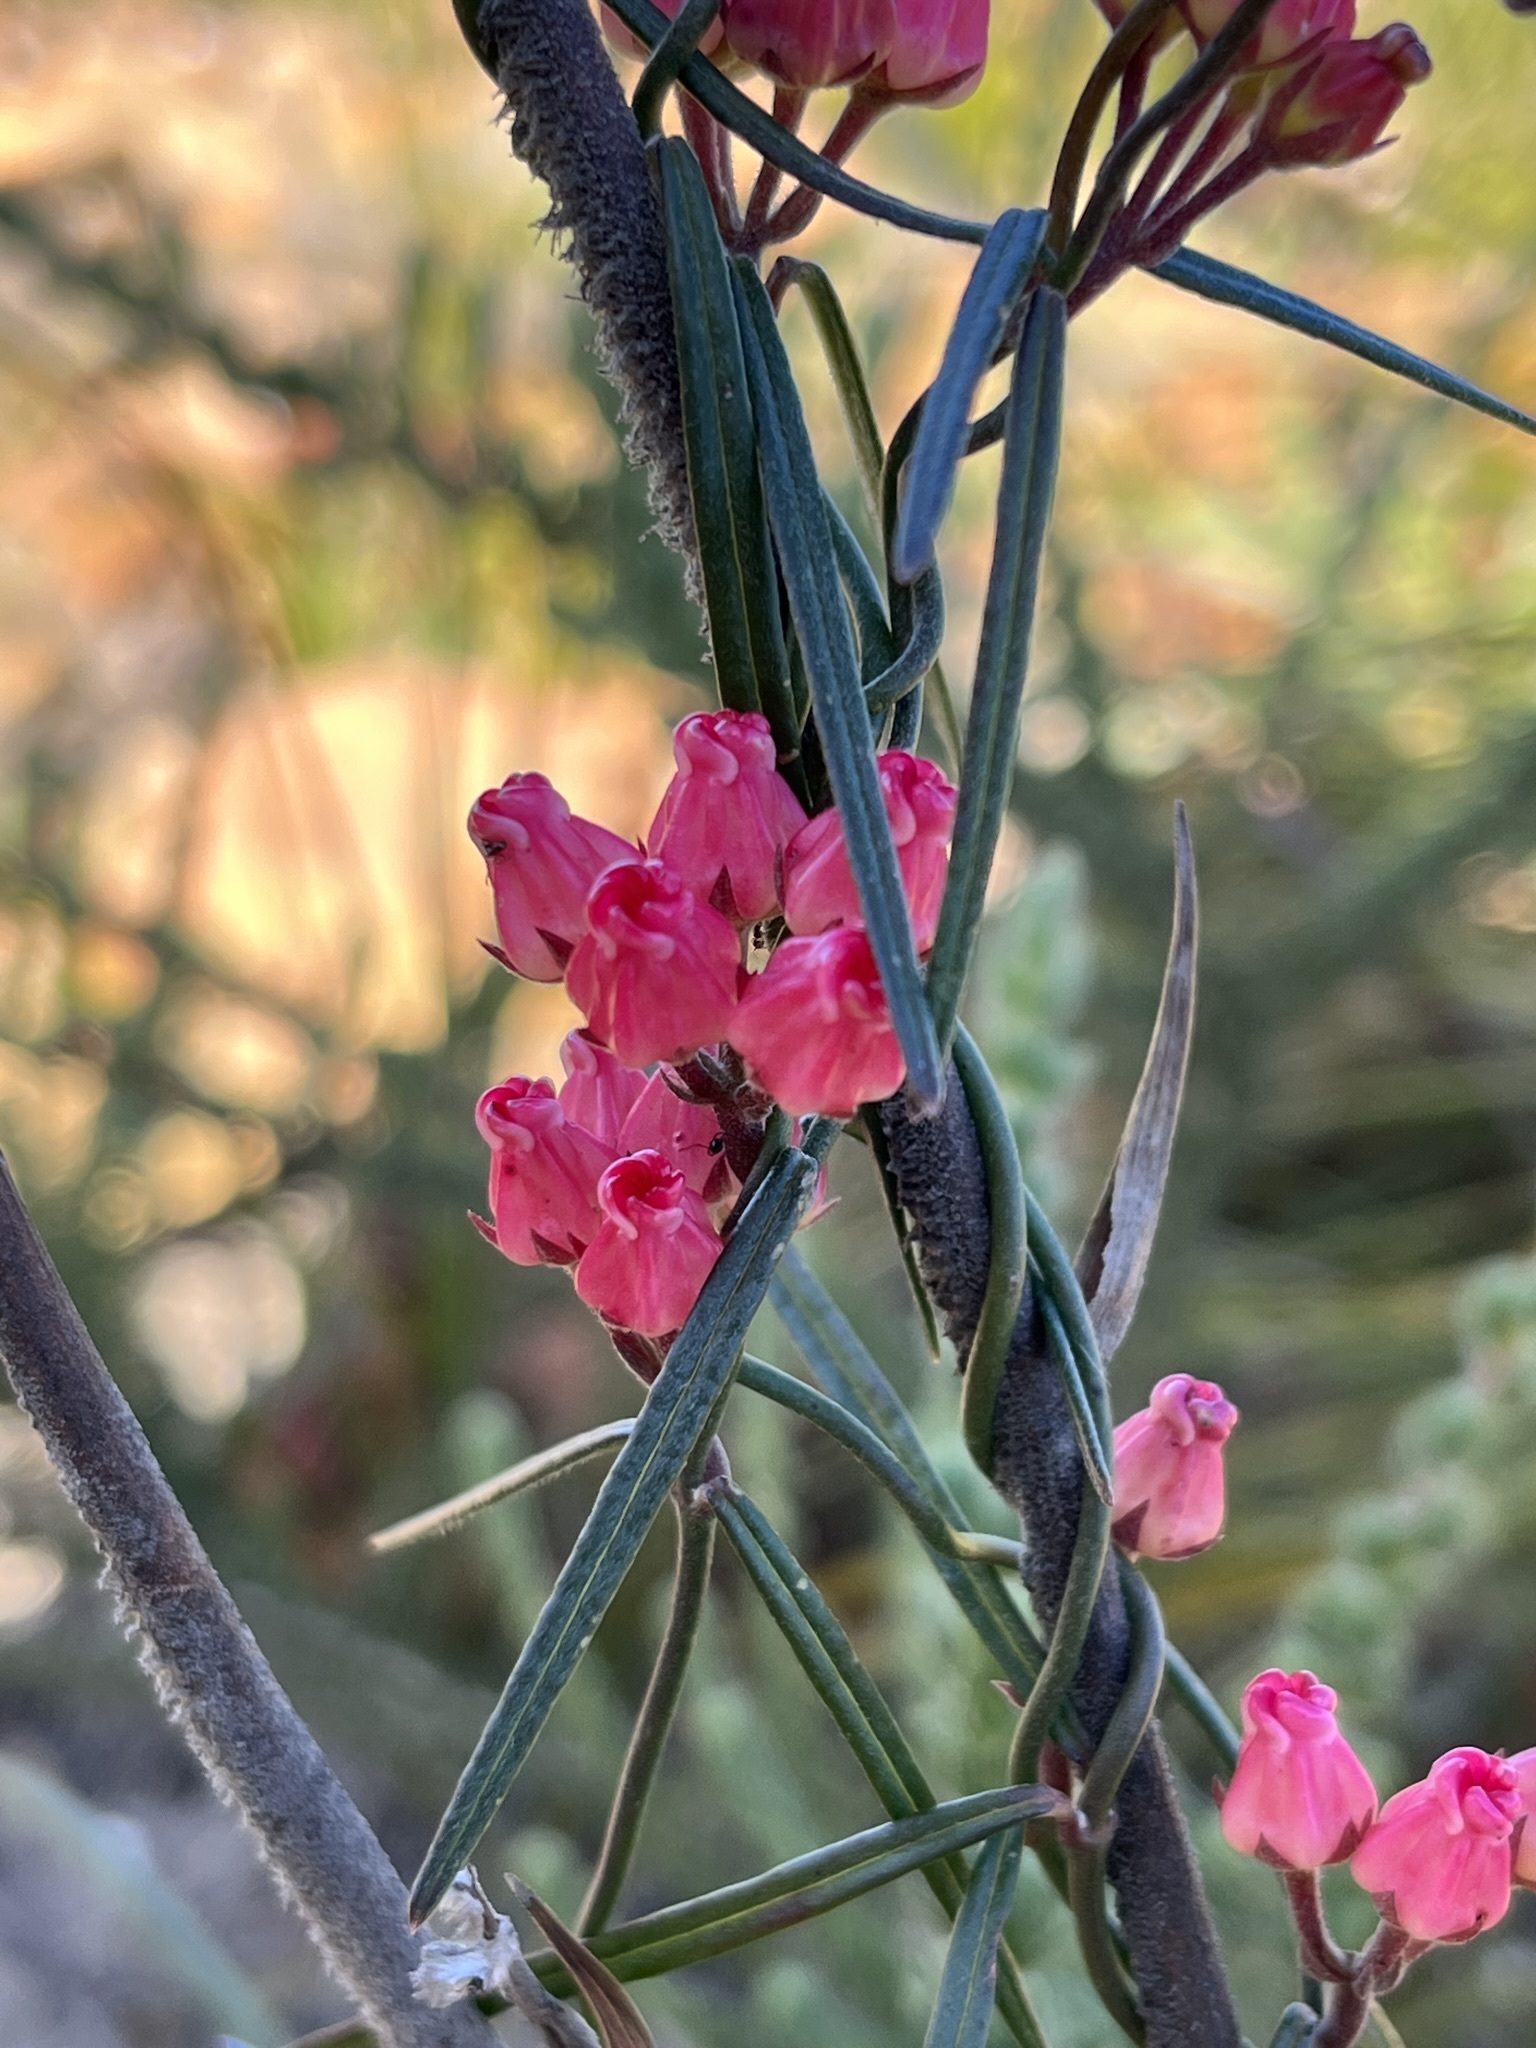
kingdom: Plantae
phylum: Tracheophyta
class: Magnoliopsida
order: Gentianales
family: Apocynaceae
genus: Microloma
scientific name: Microloma tenuifolium
